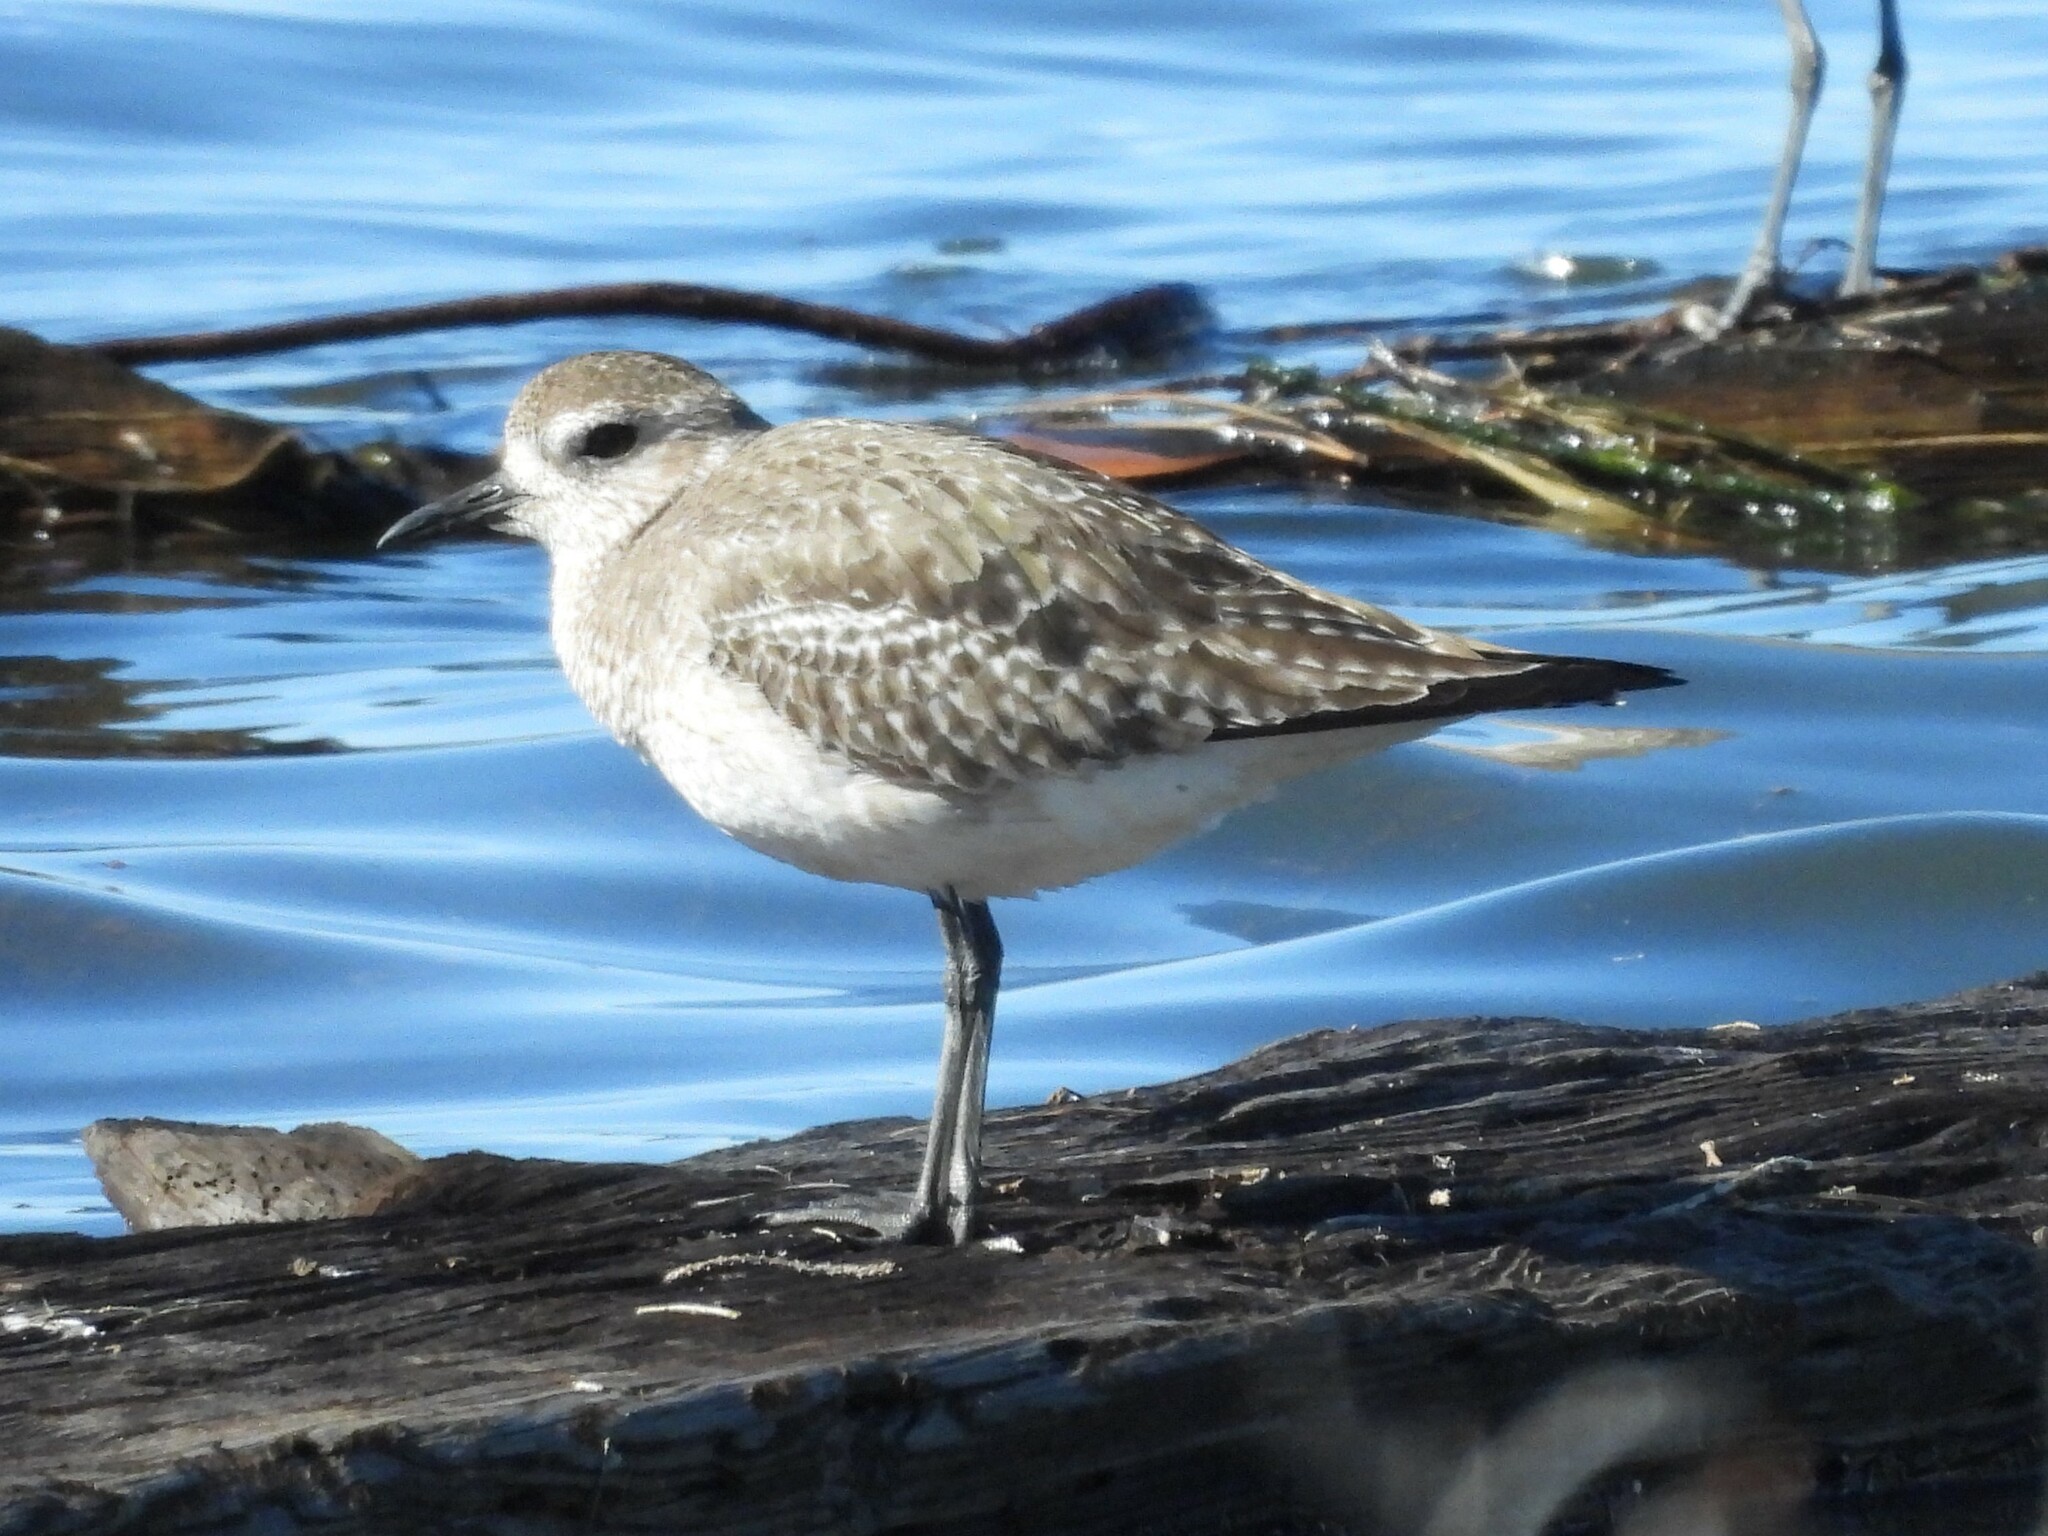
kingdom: Animalia
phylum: Chordata
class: Aves
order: Charadriiformes
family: Charadriidae
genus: Pluvialis
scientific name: Pluvialis squatarola
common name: Grey plover
